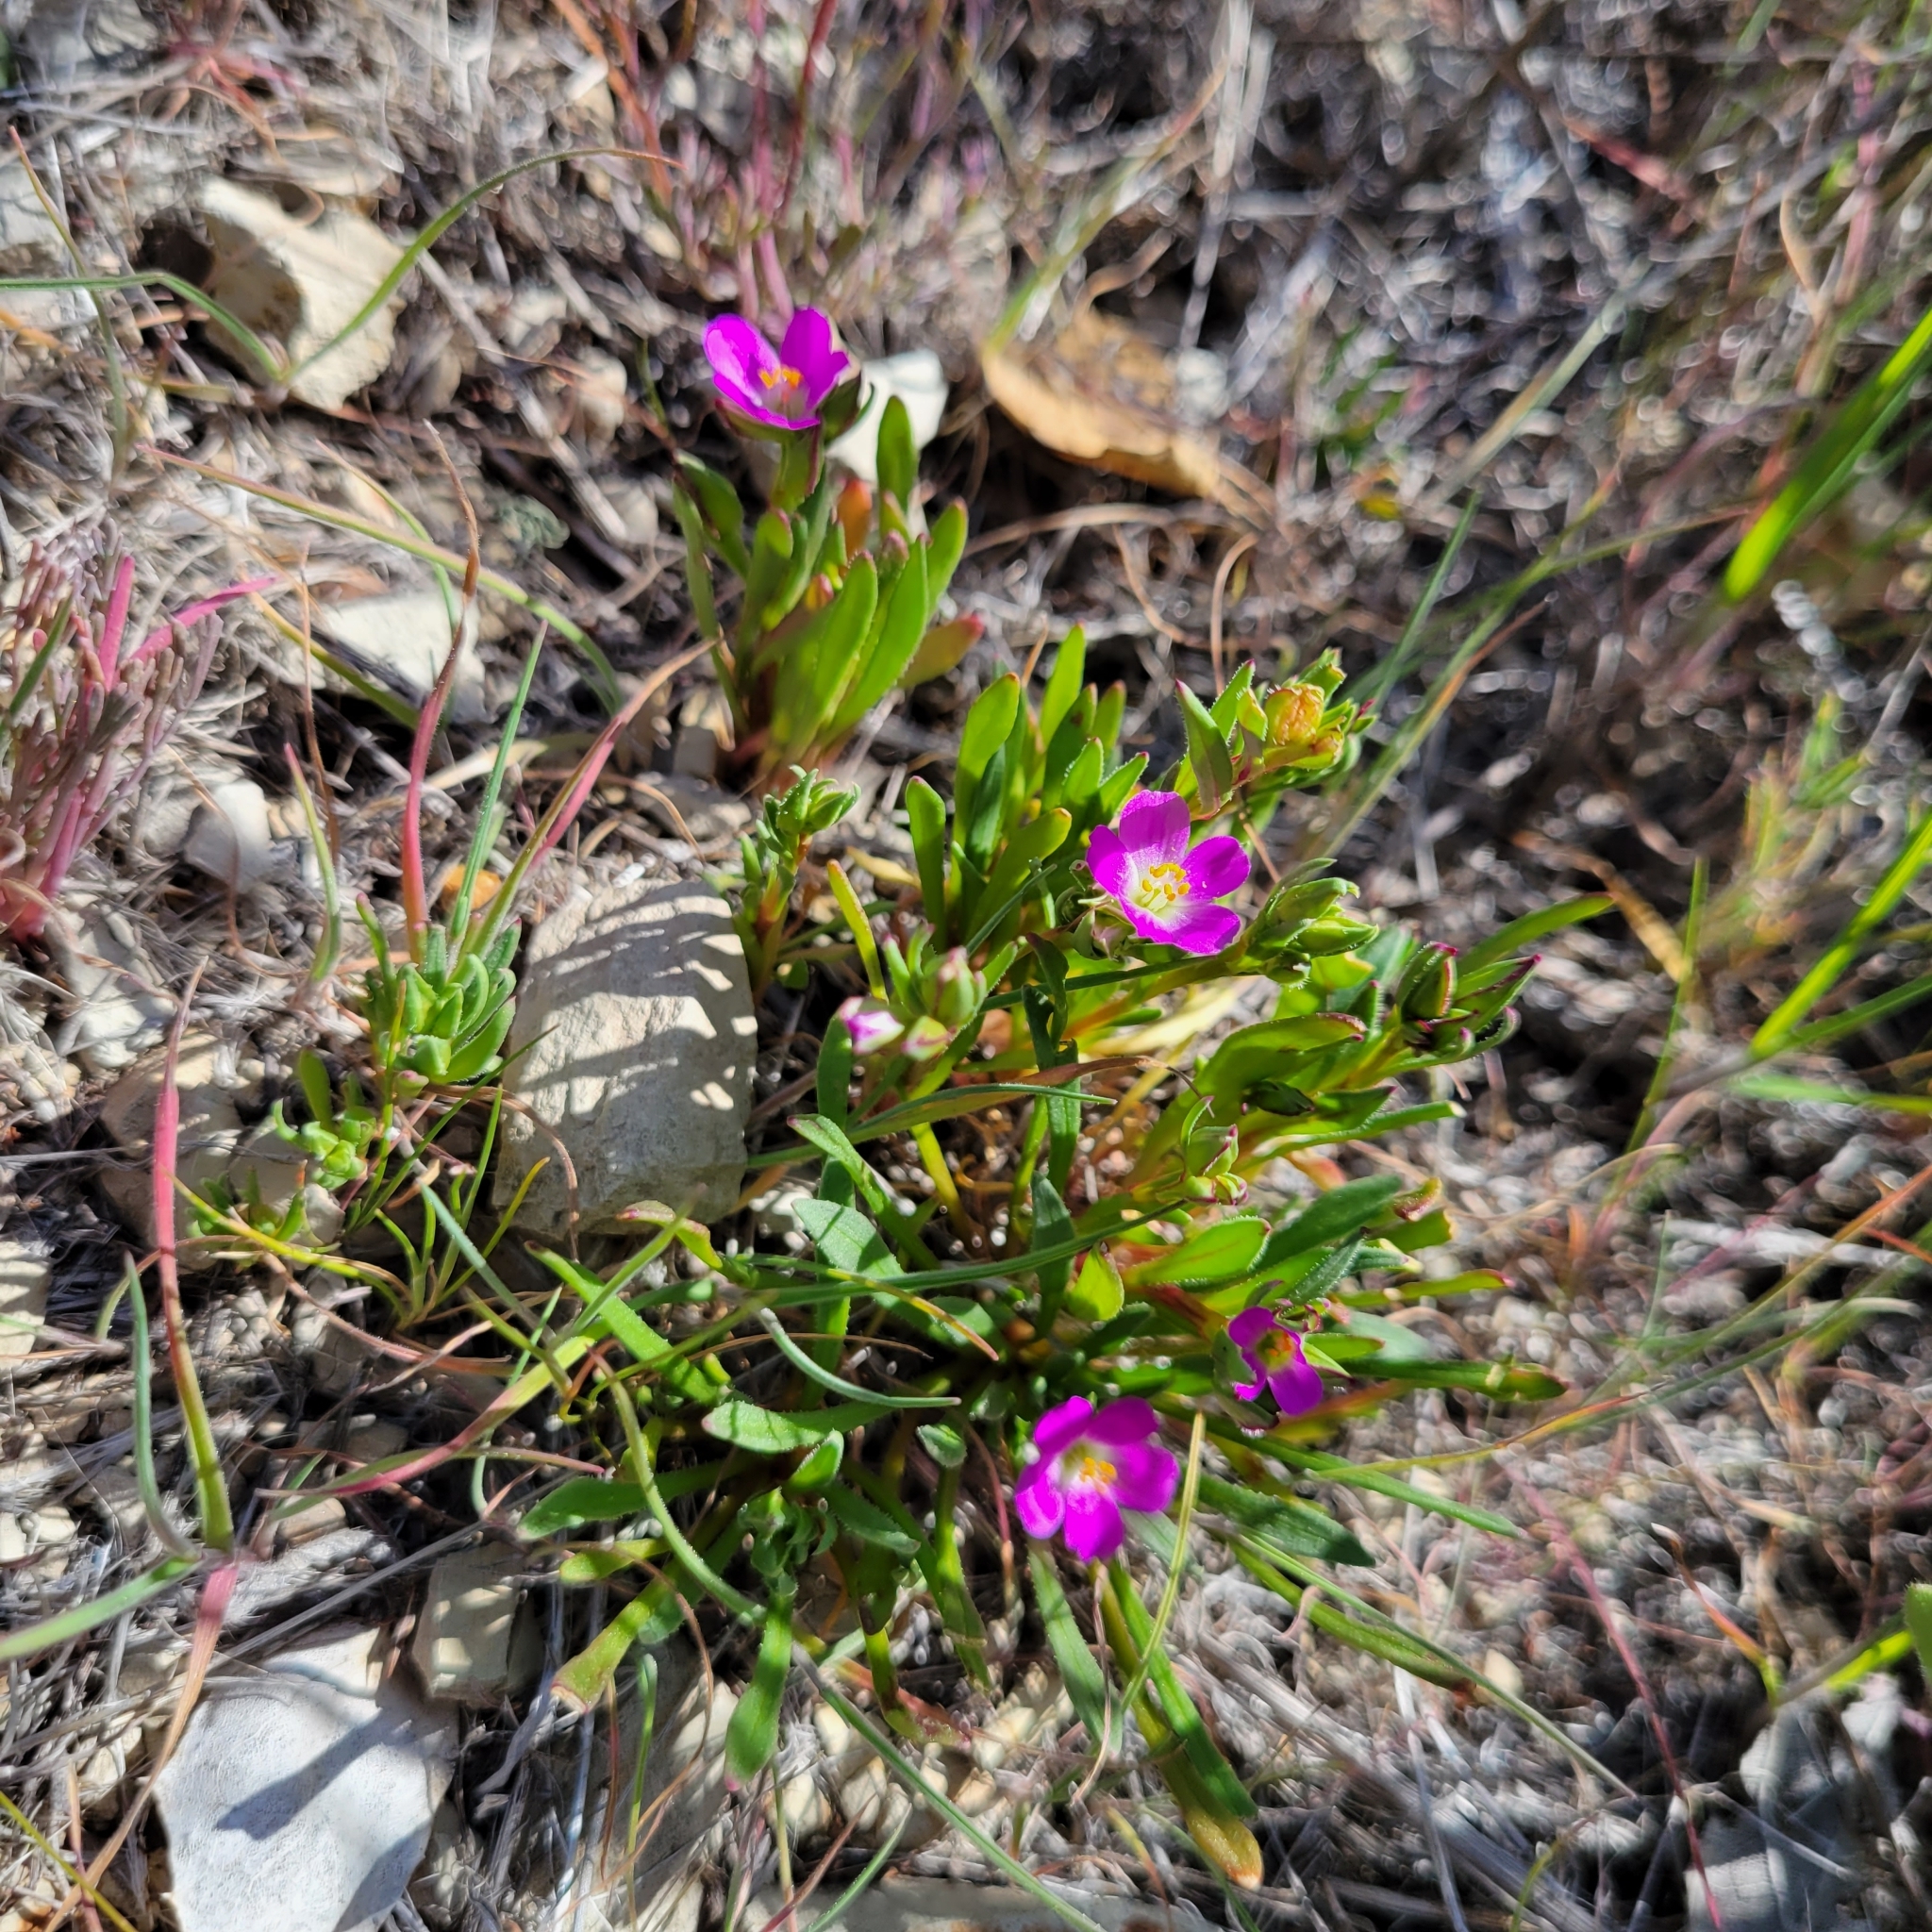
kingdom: Plantae
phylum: Tracheophyta
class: Magnoliopsida
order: Caryophyllales
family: Montiaceae
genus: Calandrinia
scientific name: Calandrinia menziesii
